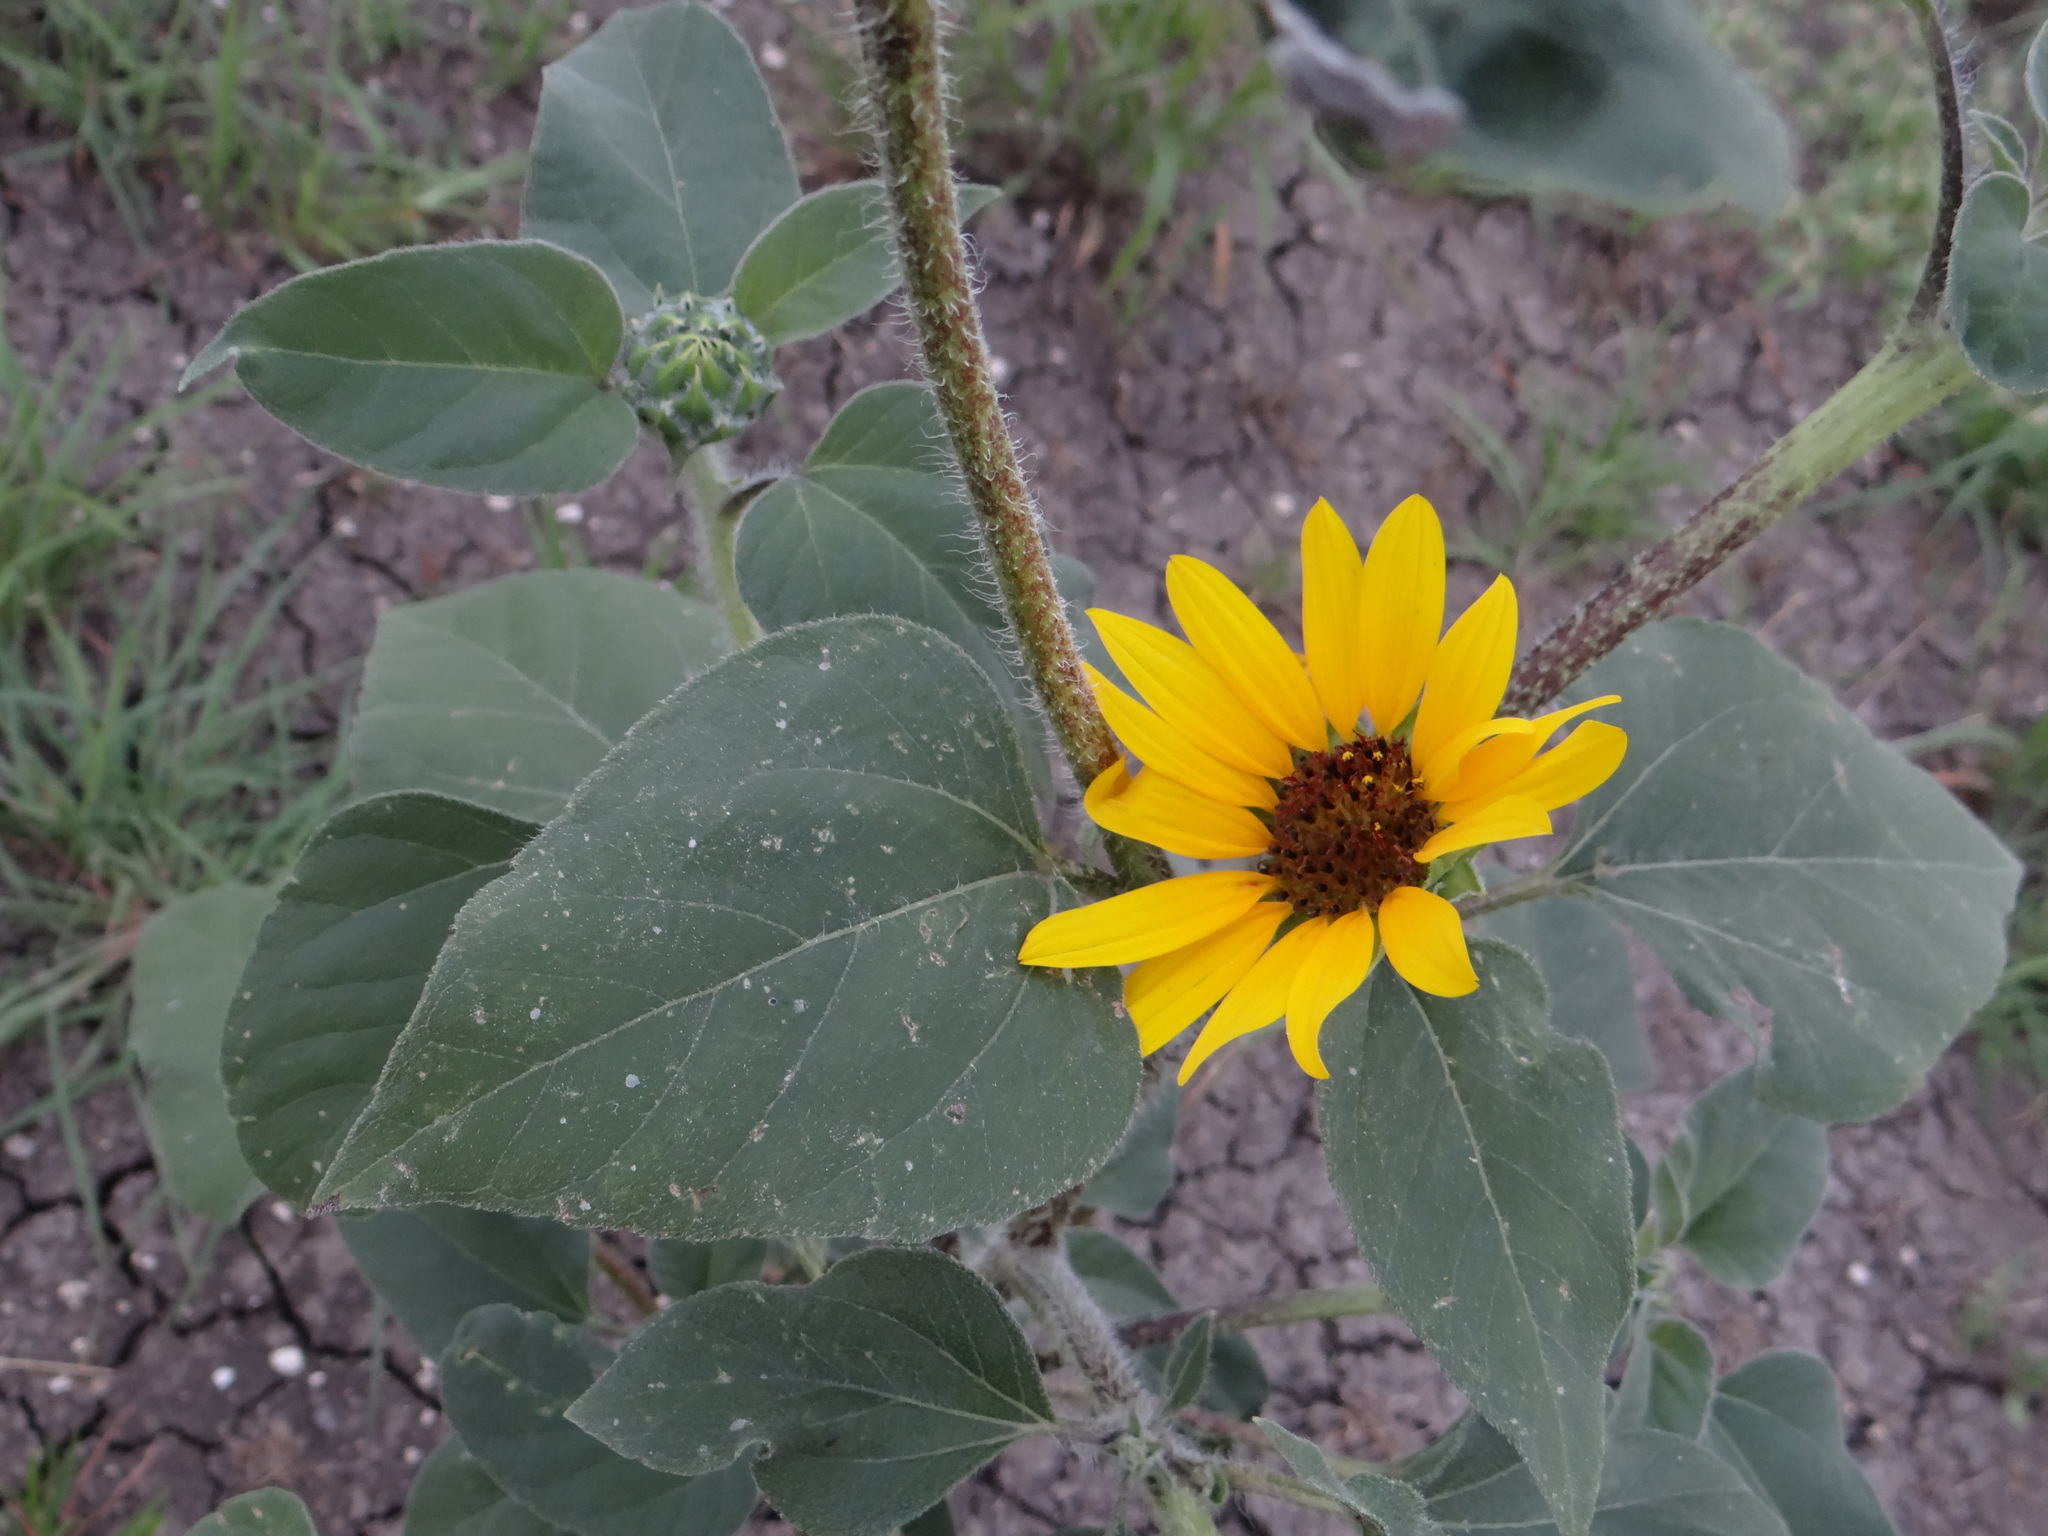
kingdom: Plantae
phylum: Tracheophyta
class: Magnoliopsida
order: Asterales
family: Asteraceae
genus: Helianthus
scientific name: Helianthus annuus
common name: Sunflower
